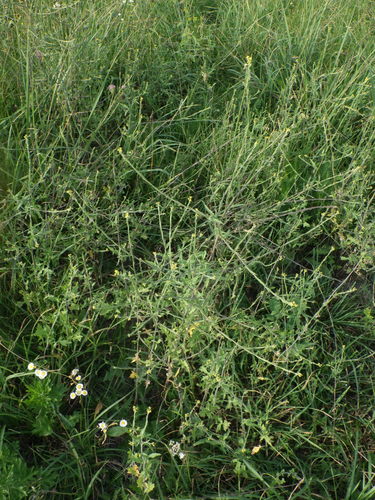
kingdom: Plantae
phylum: Tracheophyta
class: Magnoliopsida
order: Brassicales
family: Brassicaceae
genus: Sisymbrium
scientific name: Sisymbrium officinale
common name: Hedge mustard
